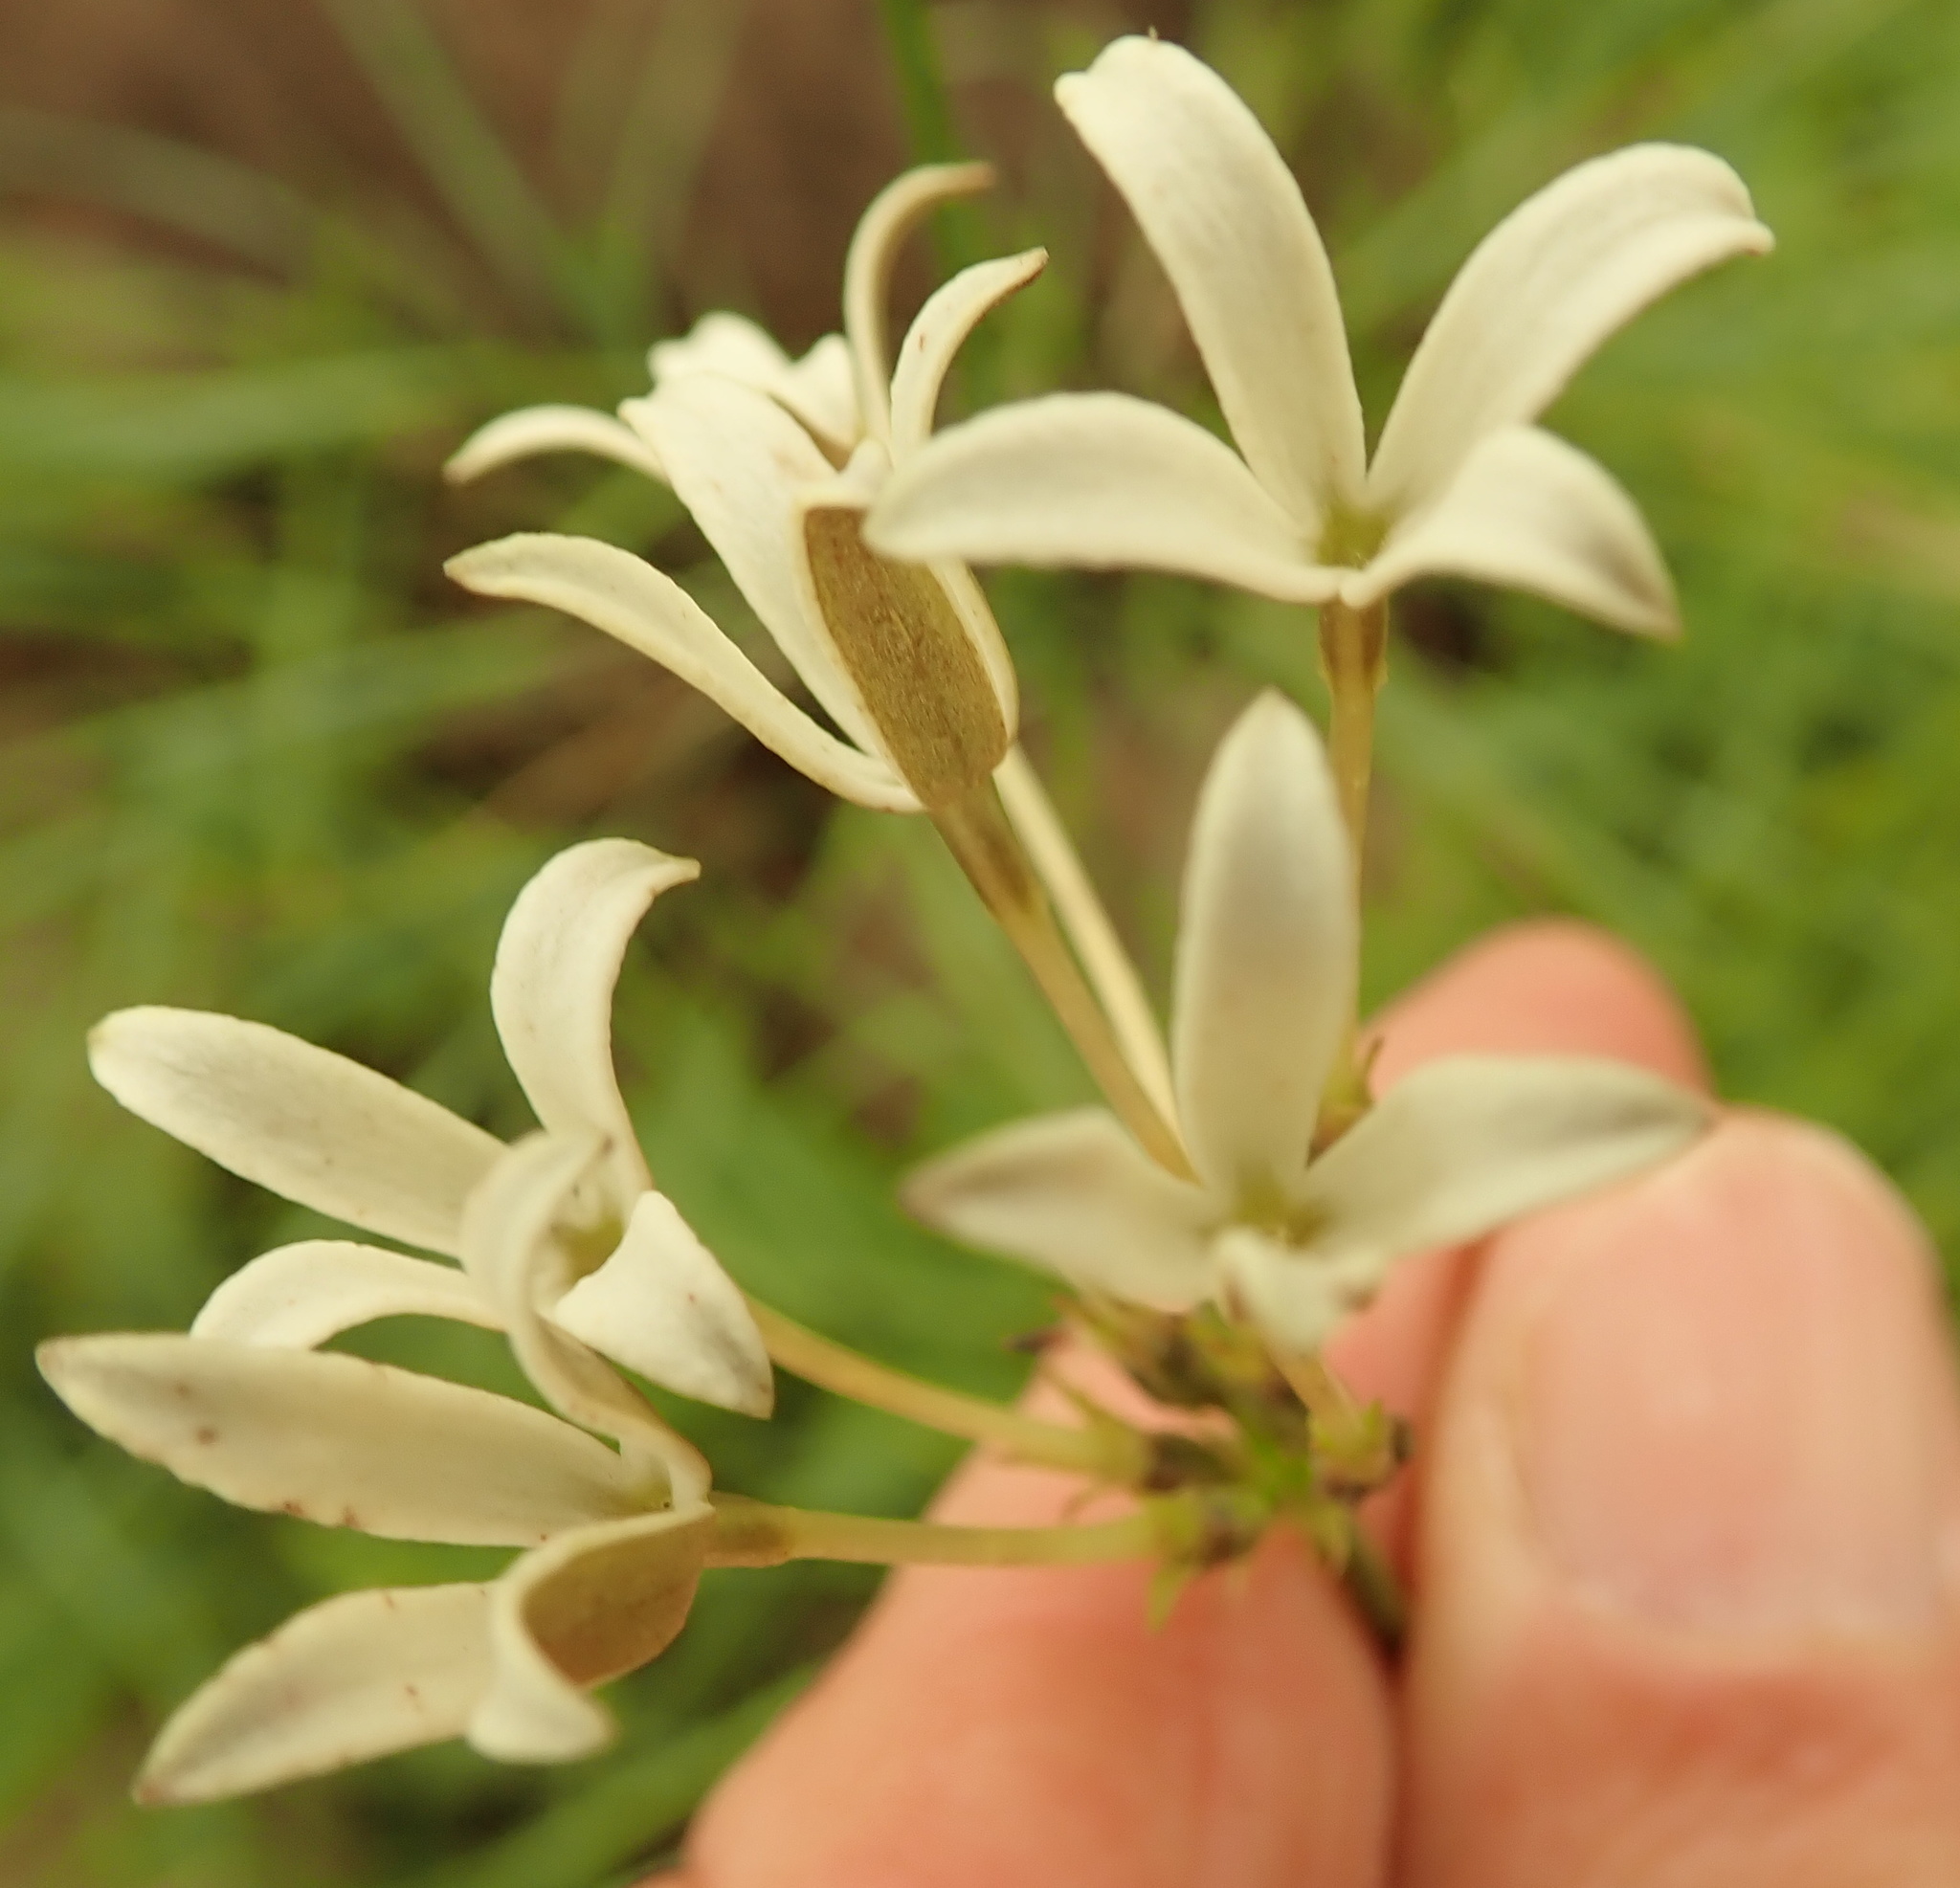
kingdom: Plantae
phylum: Tracheophyta
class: Magnoliopsida
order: Gentianales
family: Rubiaceae
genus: Kohautia
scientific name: Kohautia amatymbica
